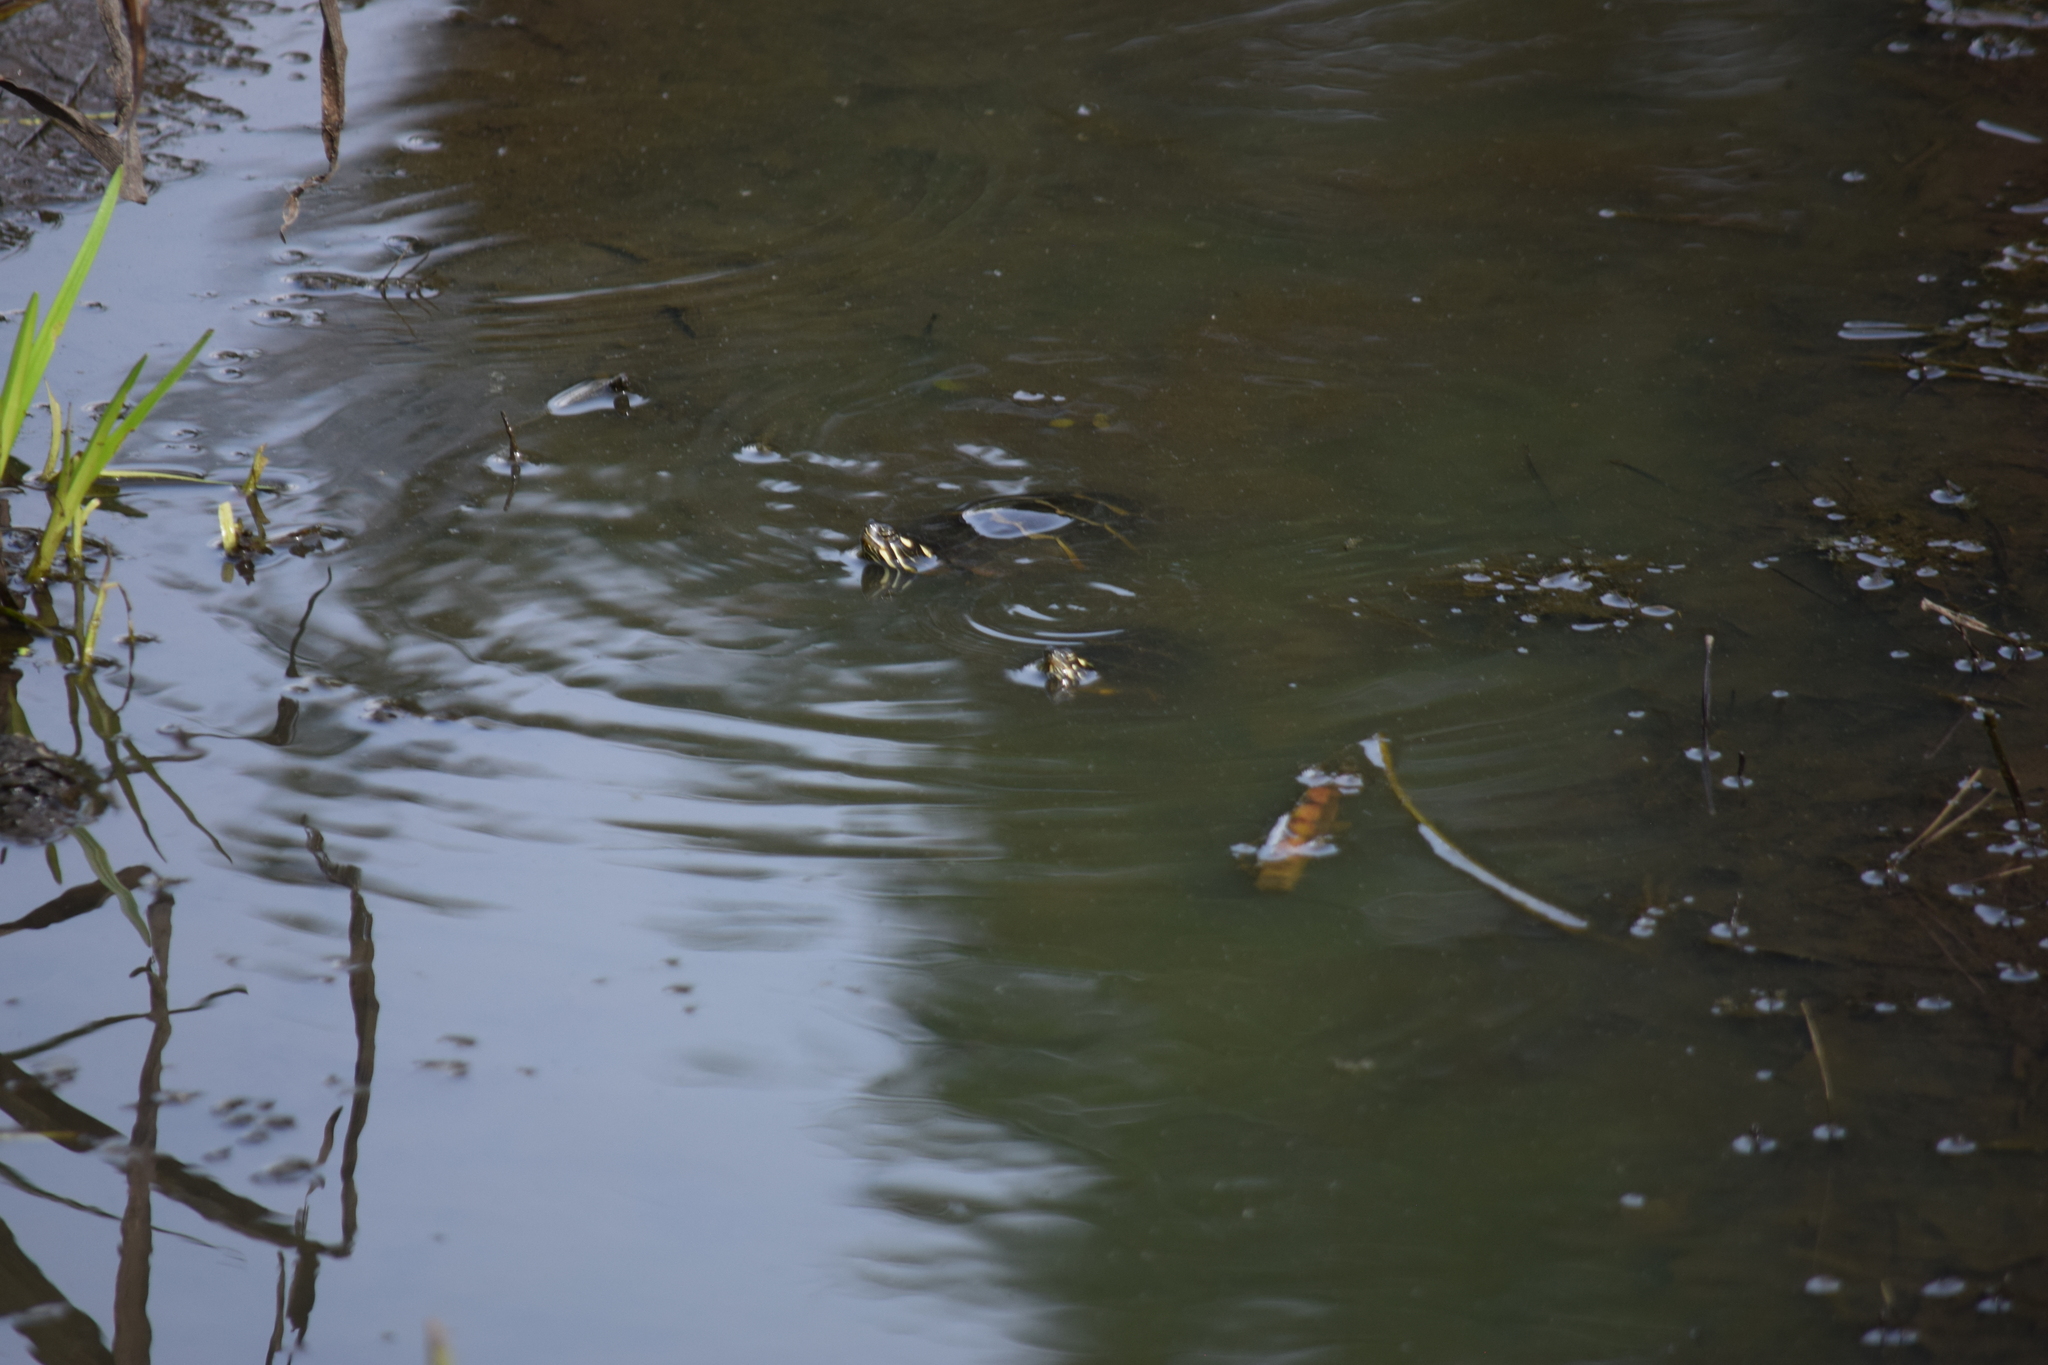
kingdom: Animalia
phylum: Chordata
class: Testudines
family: Emydidae
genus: Chrysemys
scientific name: Chrysemys picta
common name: Painted turtle
